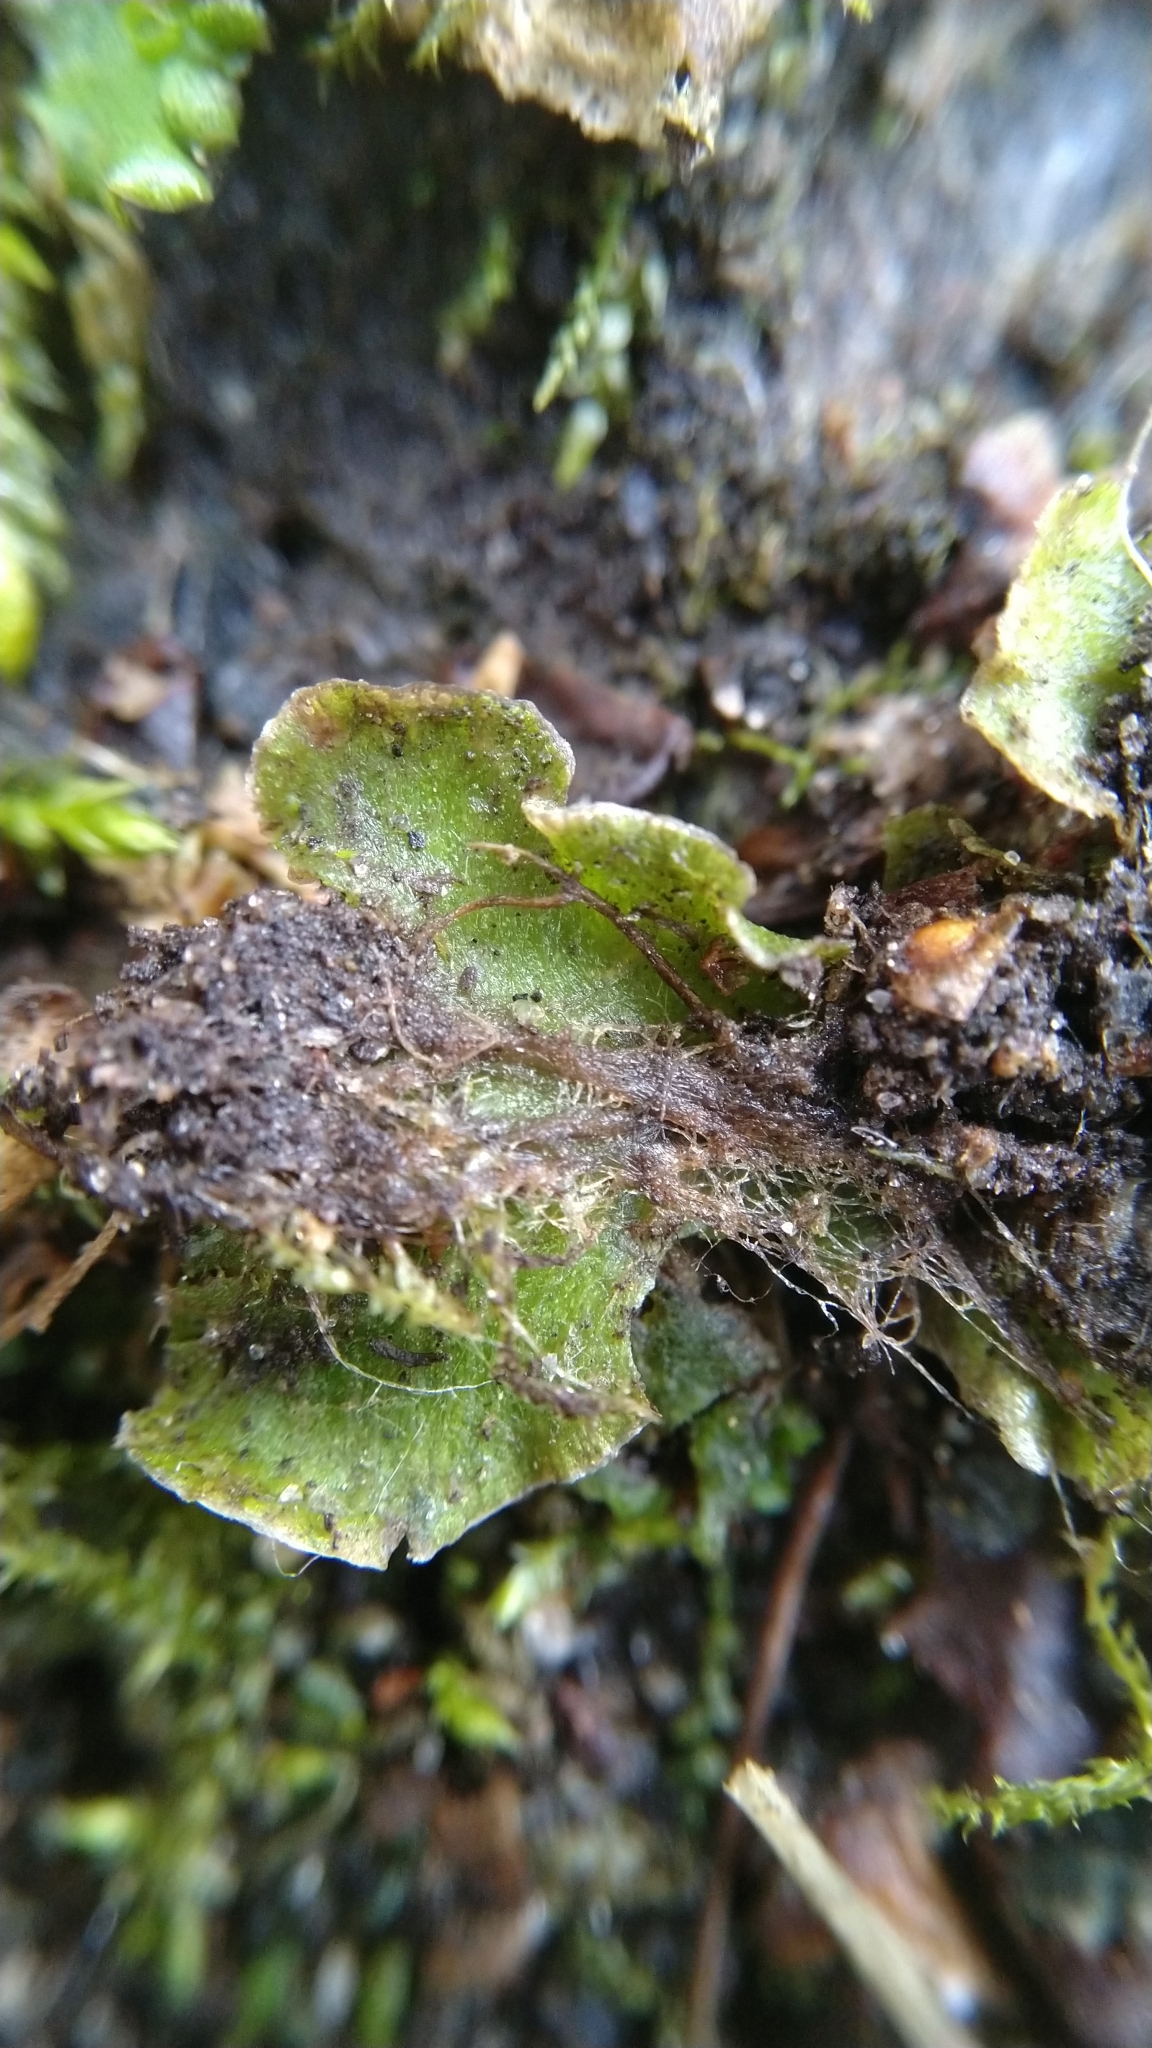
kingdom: Plantae
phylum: Marchantiophyta
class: Marchantiopsida
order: Marchantiales
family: Marchantiaceae
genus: Marchantia
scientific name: Marchantia polymorpha
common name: Common liverwort
